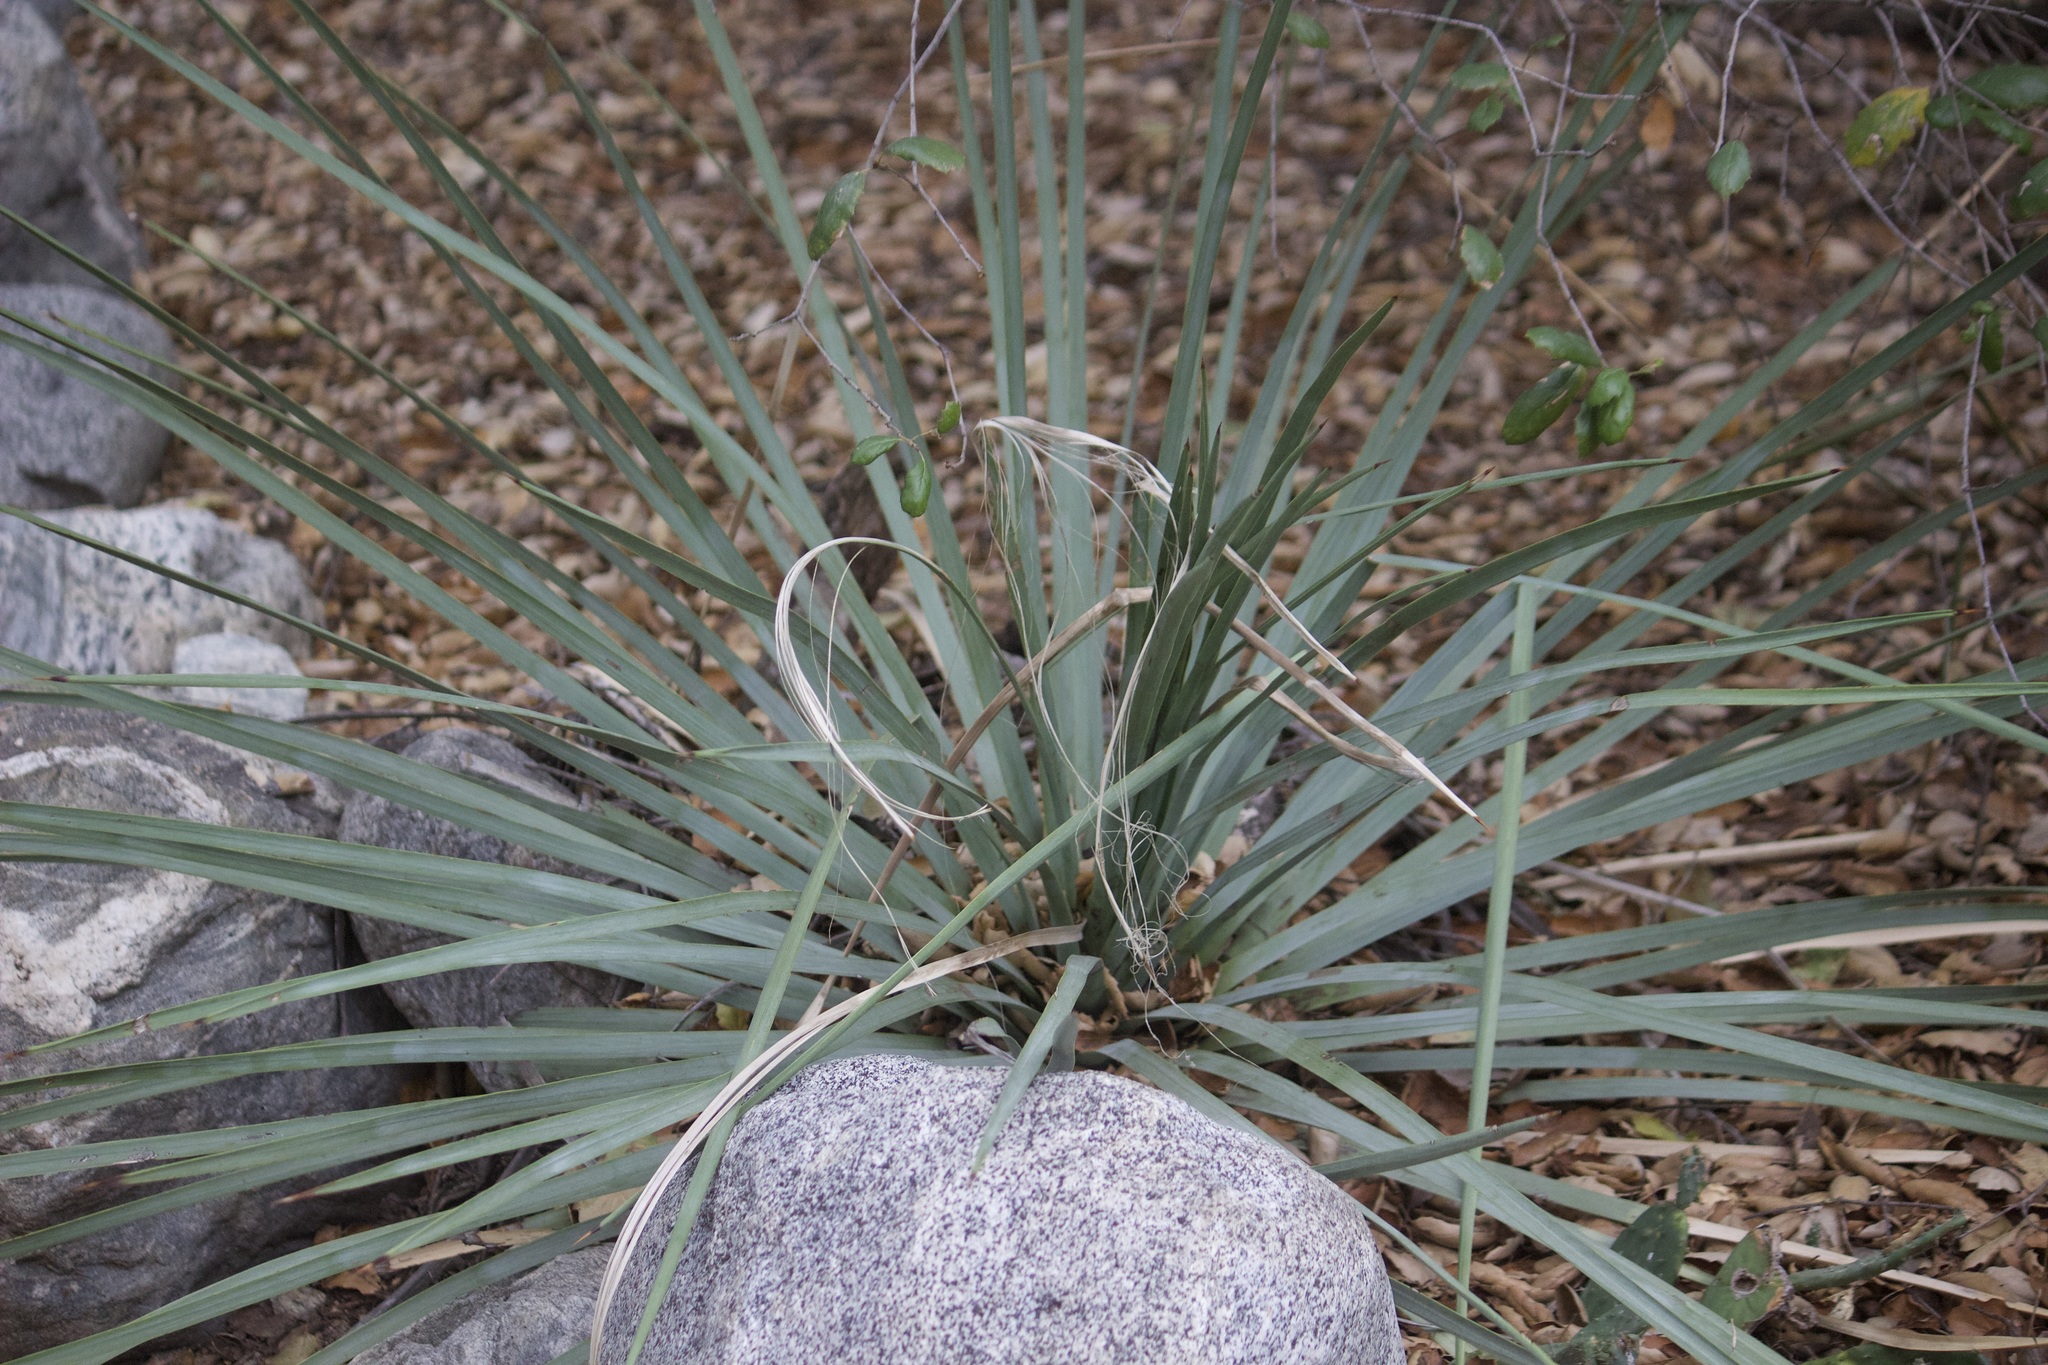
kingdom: Plantae
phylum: Tracheophyta
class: Liliopsida
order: Asparagales
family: Asparagaceae
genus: Hesperoyucca
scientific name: Hesperoyucca whipplei
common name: Our lord's-candle
